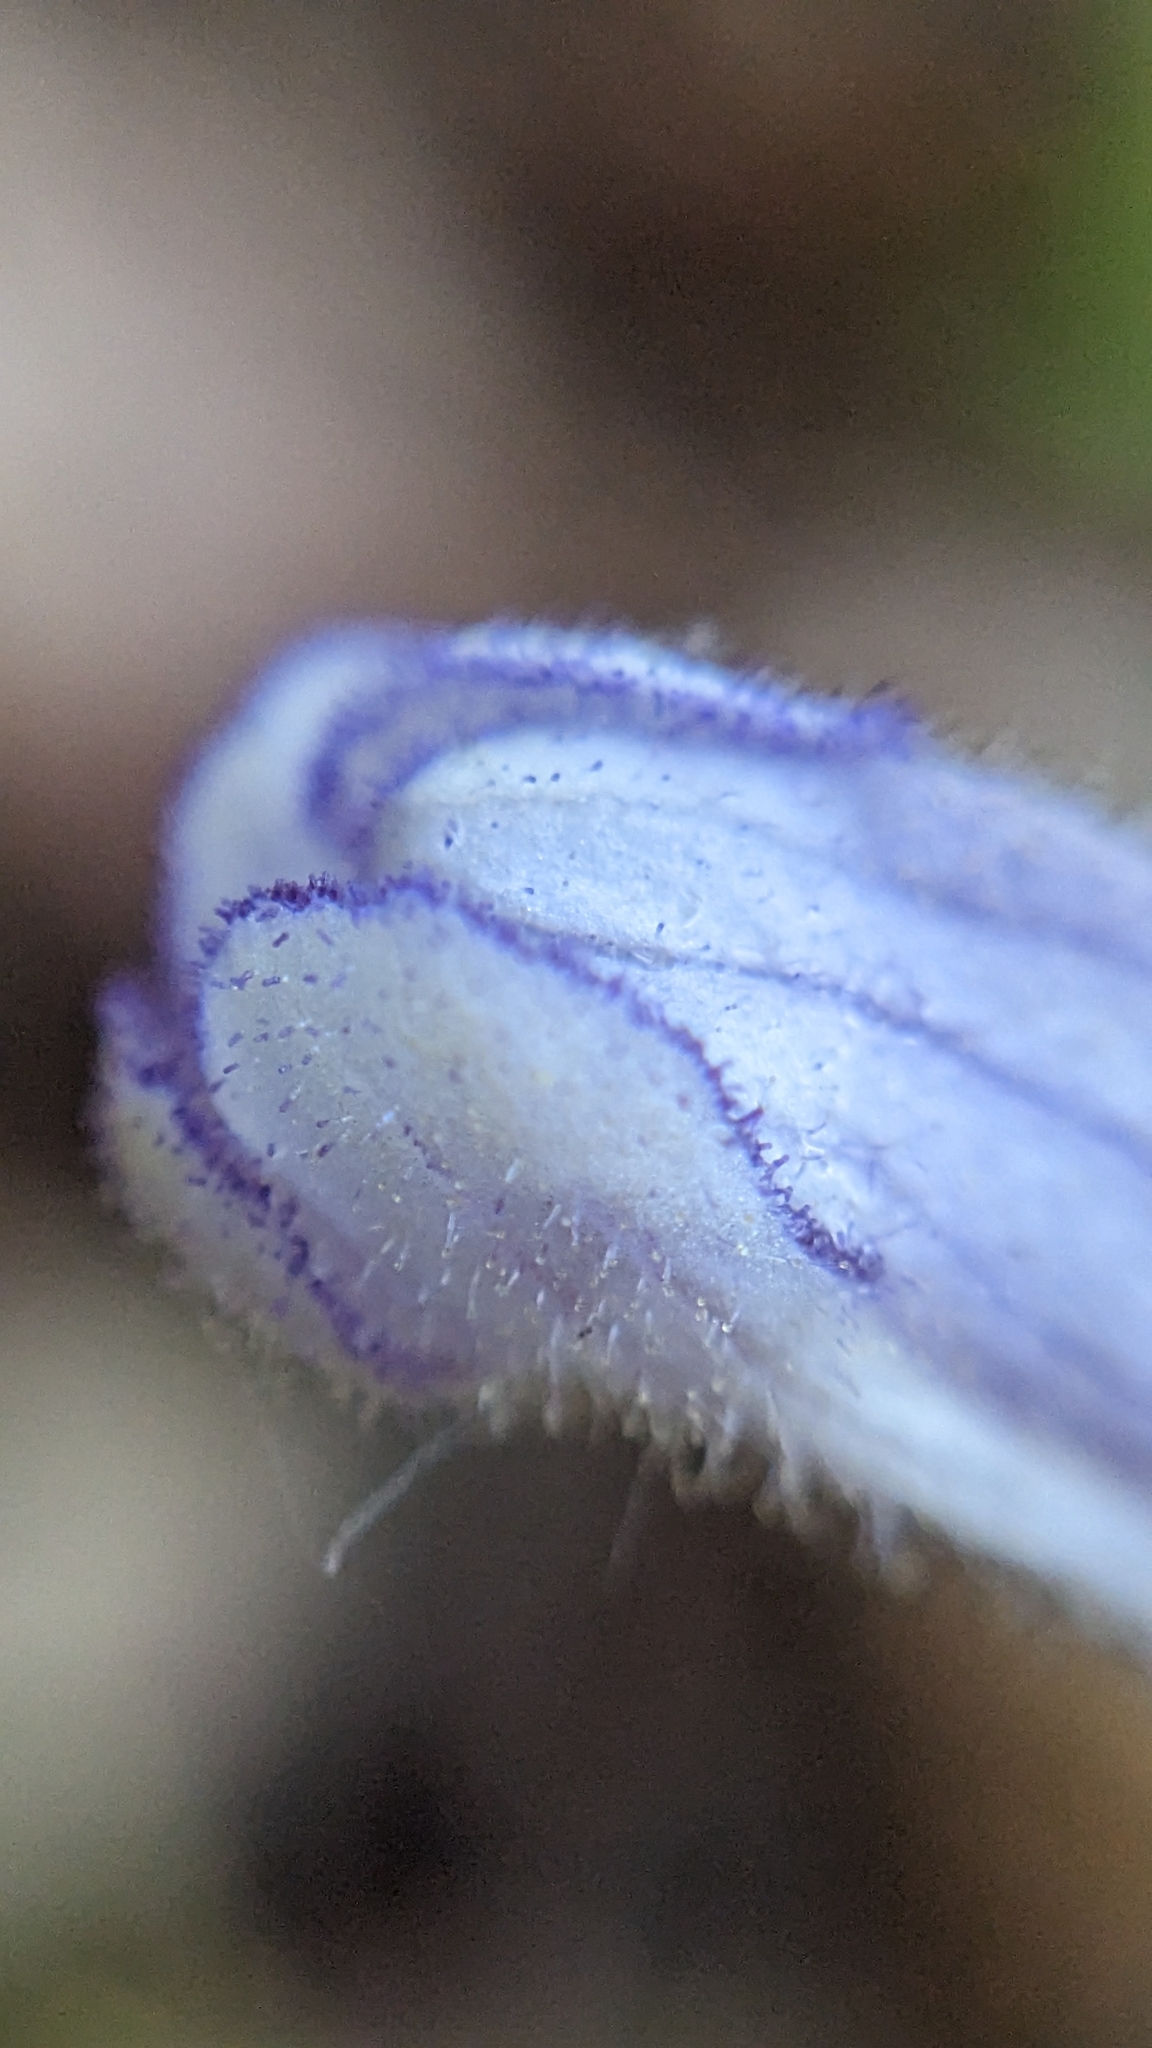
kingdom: Plantae
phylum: Tracheophyta
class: Magnoliopsida
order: Lamiales
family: Orobanchaceae
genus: Aphyllon
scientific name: Aphyllon uniflorum
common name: One-flowered broomrape
